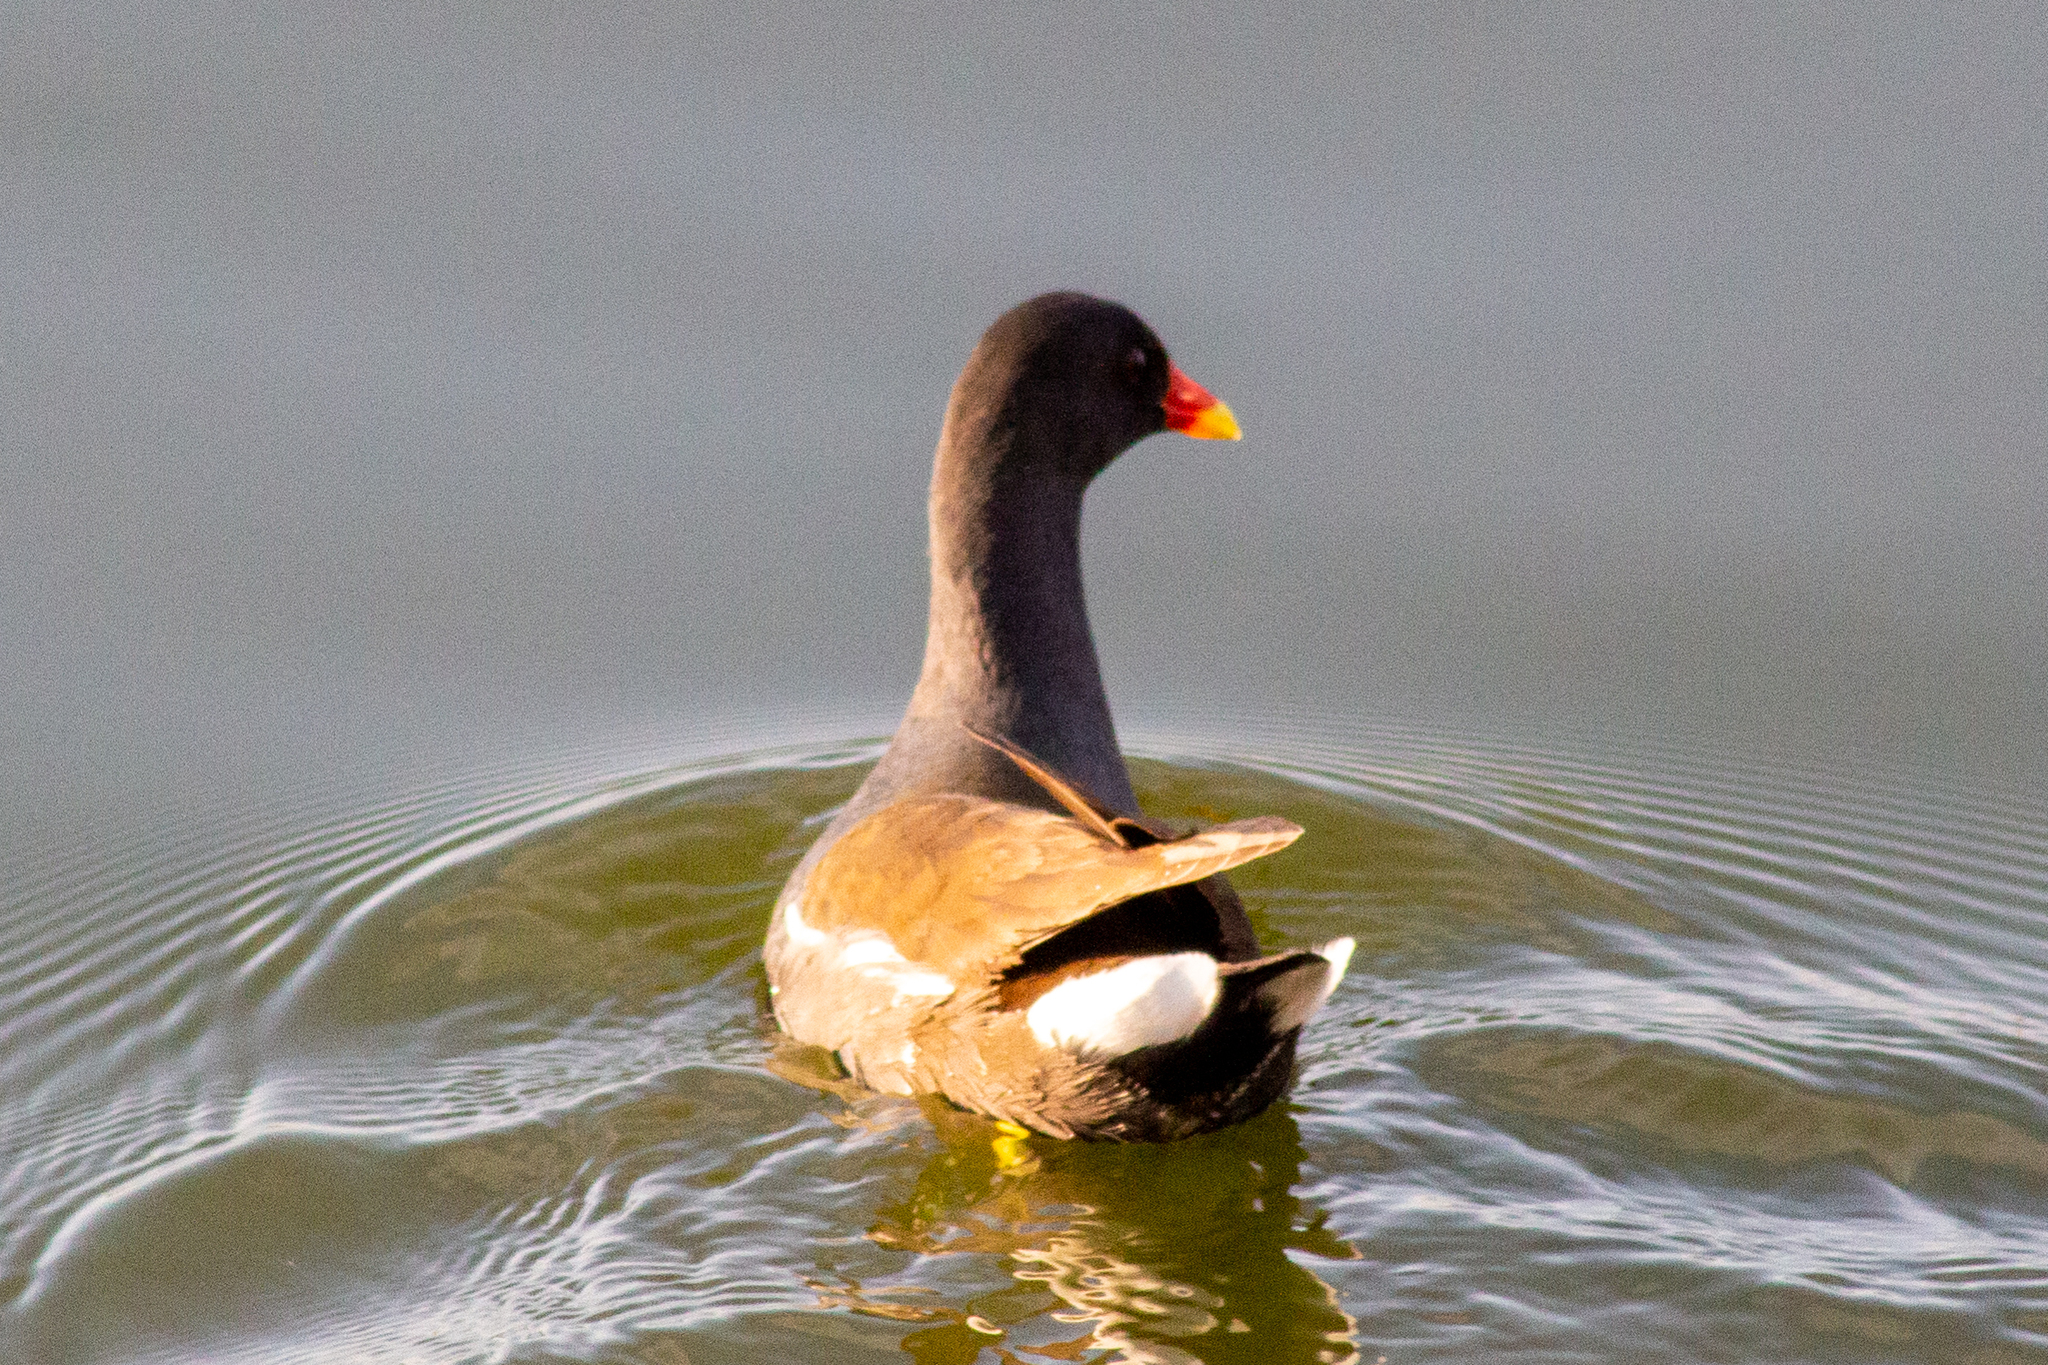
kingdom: Animalia
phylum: Chordata
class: Aves
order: Gruiformes
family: Rallidae
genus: Gallinula
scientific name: Gallinula chloropus
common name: Common moorhen
